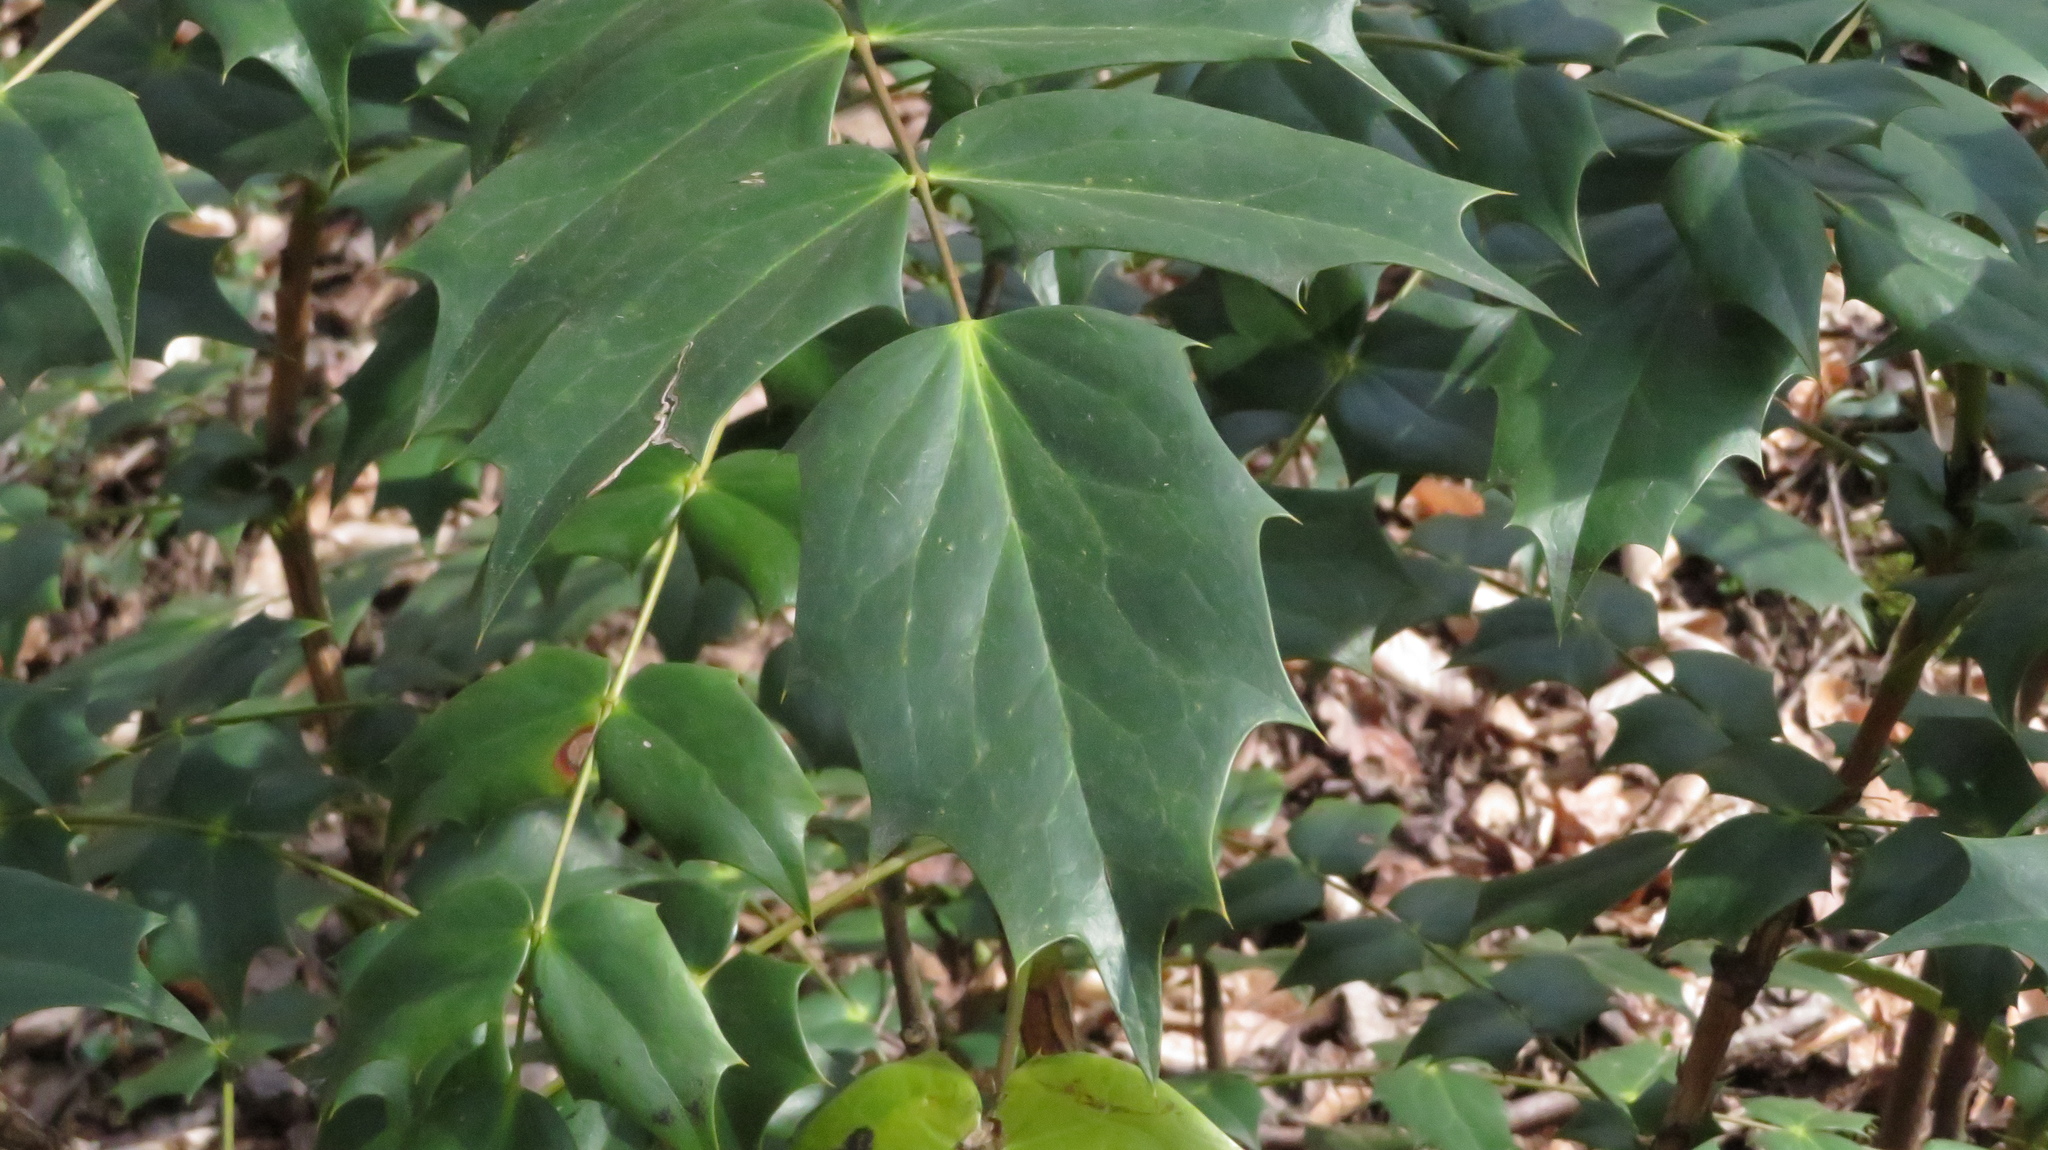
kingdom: Plantae
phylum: Tracheophyta
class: Magnoliopsida
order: Ranunculales
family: Berberidaceae
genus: Mahonia
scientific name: Mahonia bealei
